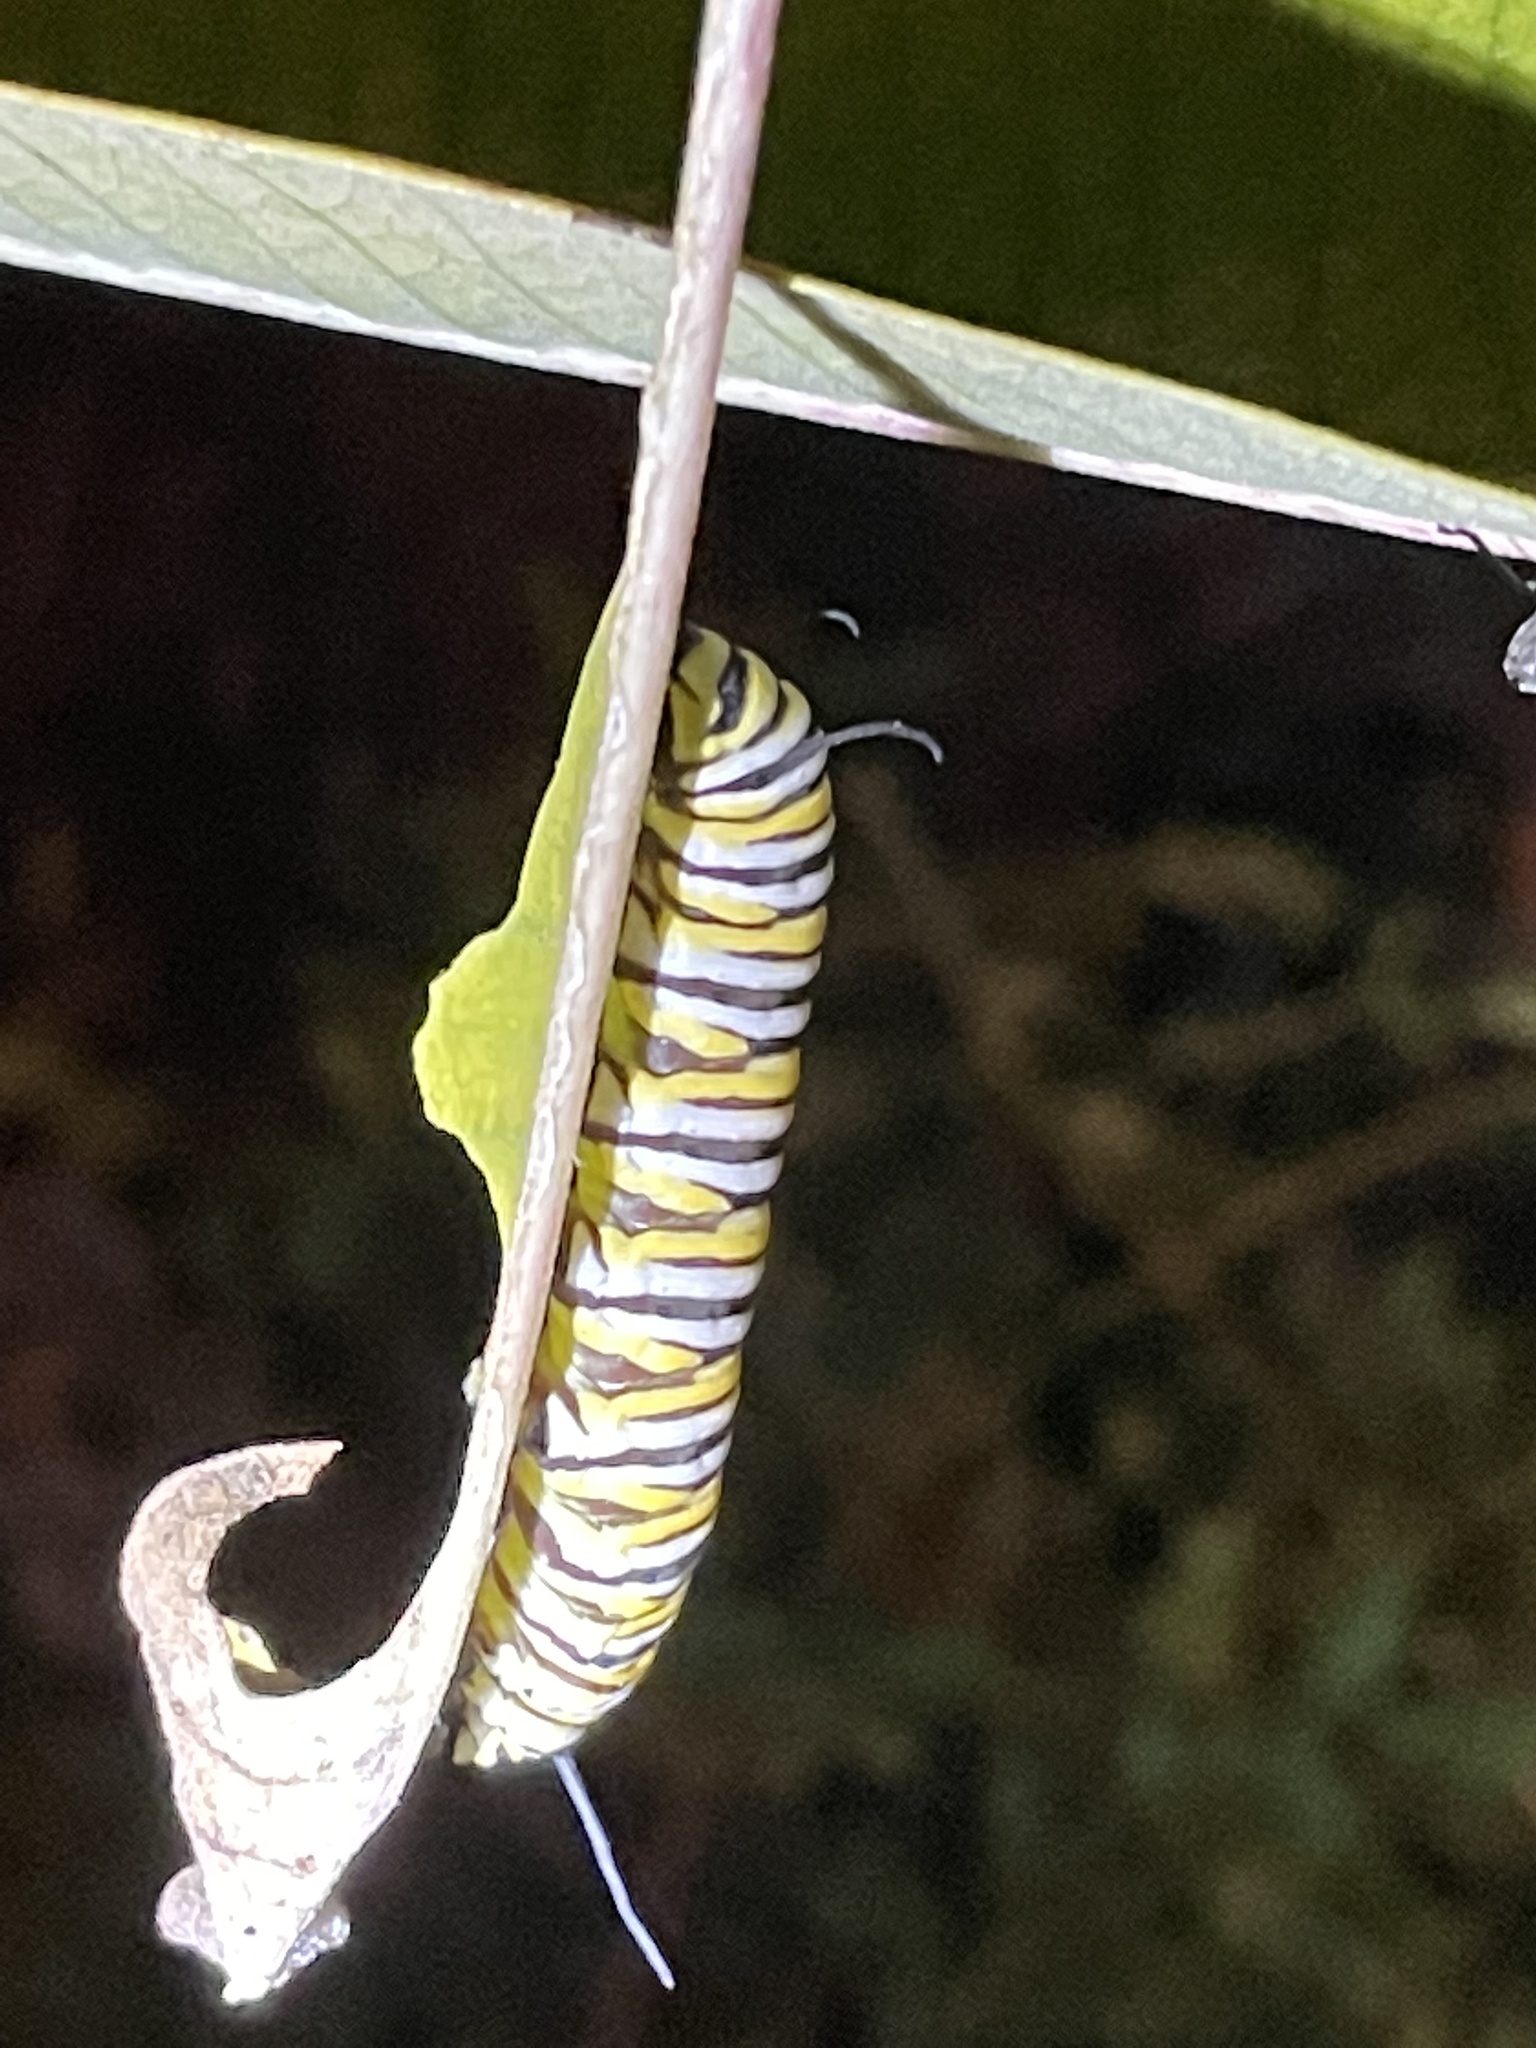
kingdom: Animalia
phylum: Arthropoda
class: Insecta
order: Lepidoptera
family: Nymphalidae
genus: Danaus
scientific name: Danaus plexippus
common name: Monarch
